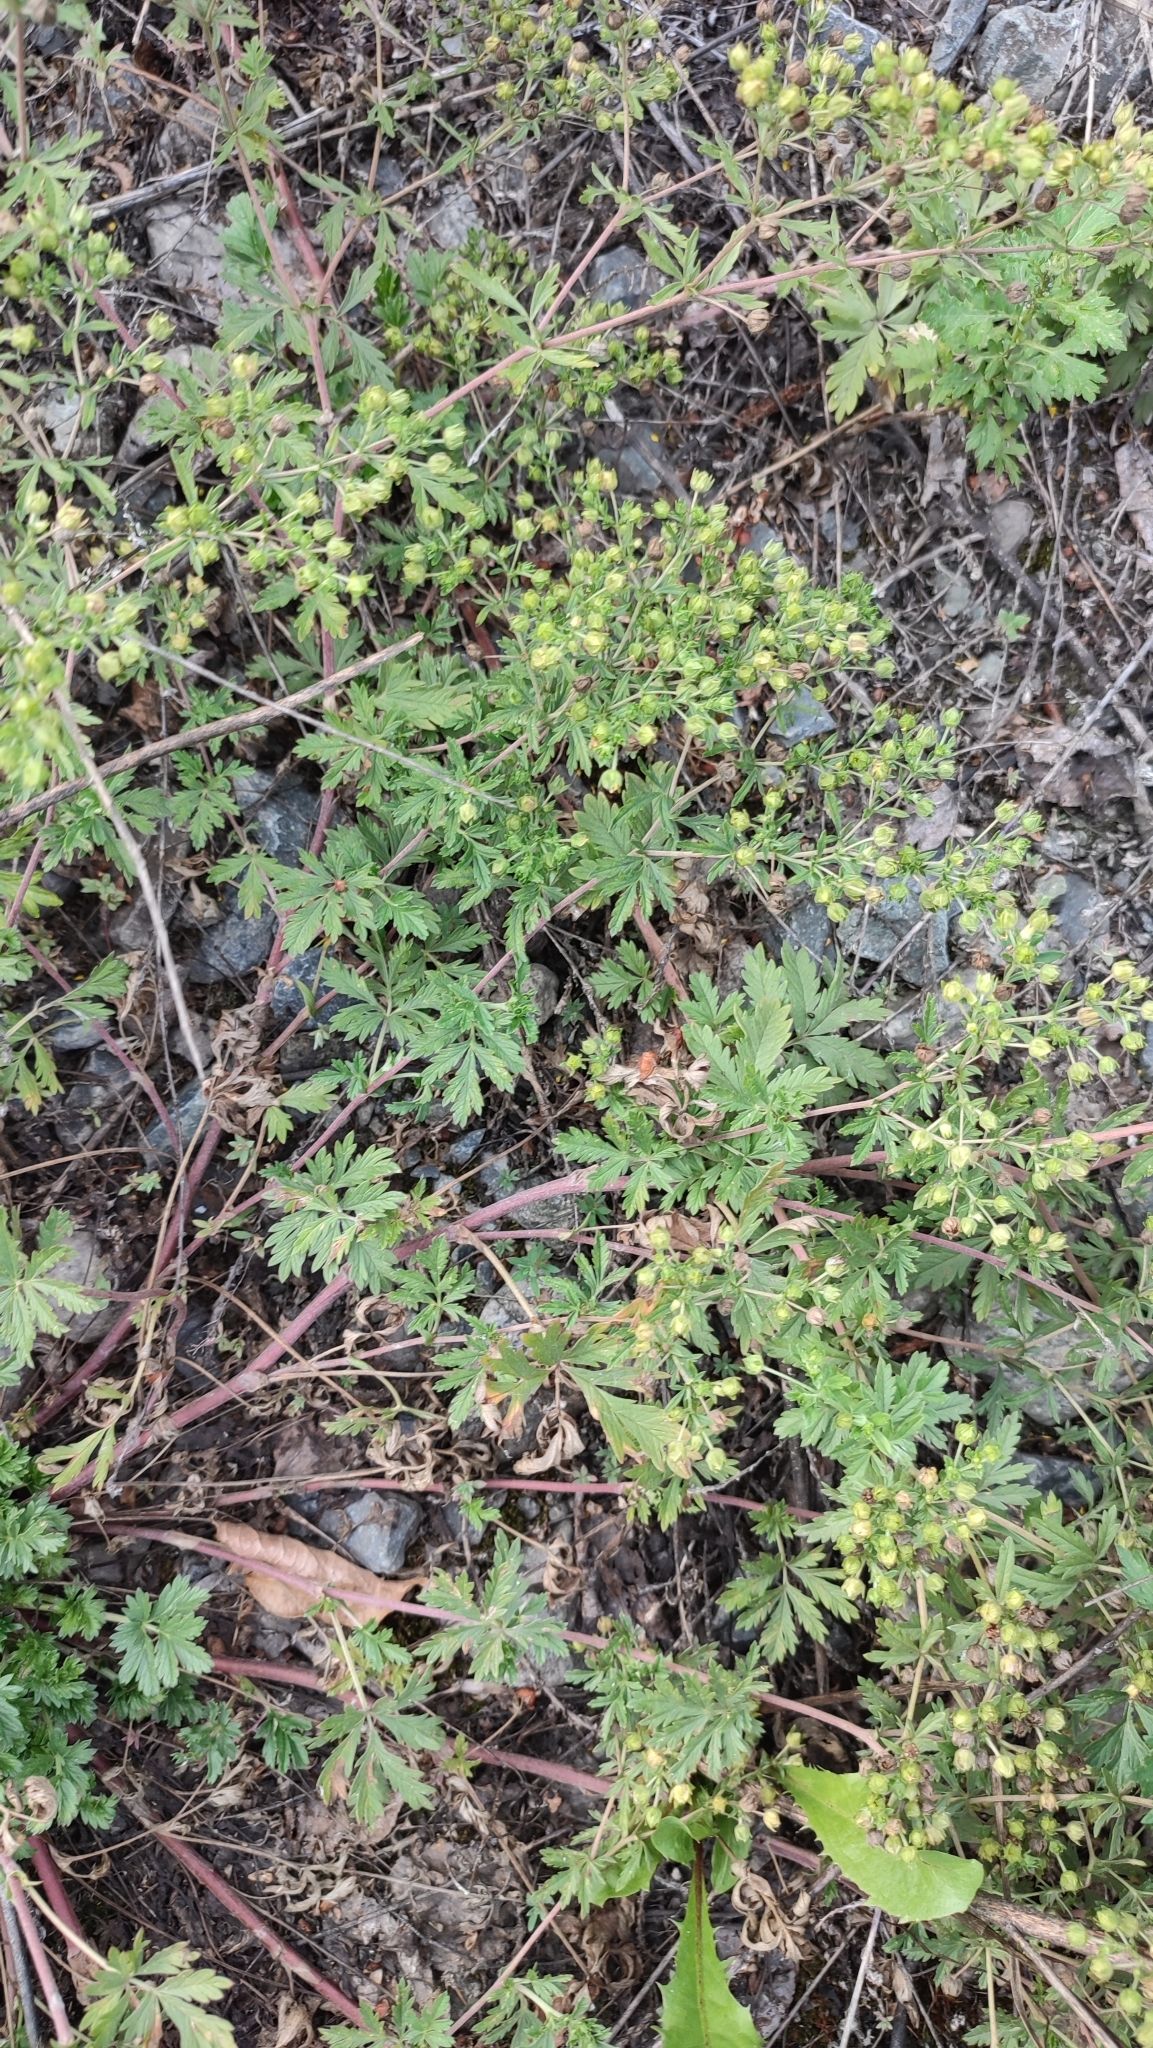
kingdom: Plantae
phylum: Tracheophyta
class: Magnoliopsida
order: Rosales
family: Rosaceae
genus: Potentilla
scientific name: Potentilla tobolensis
